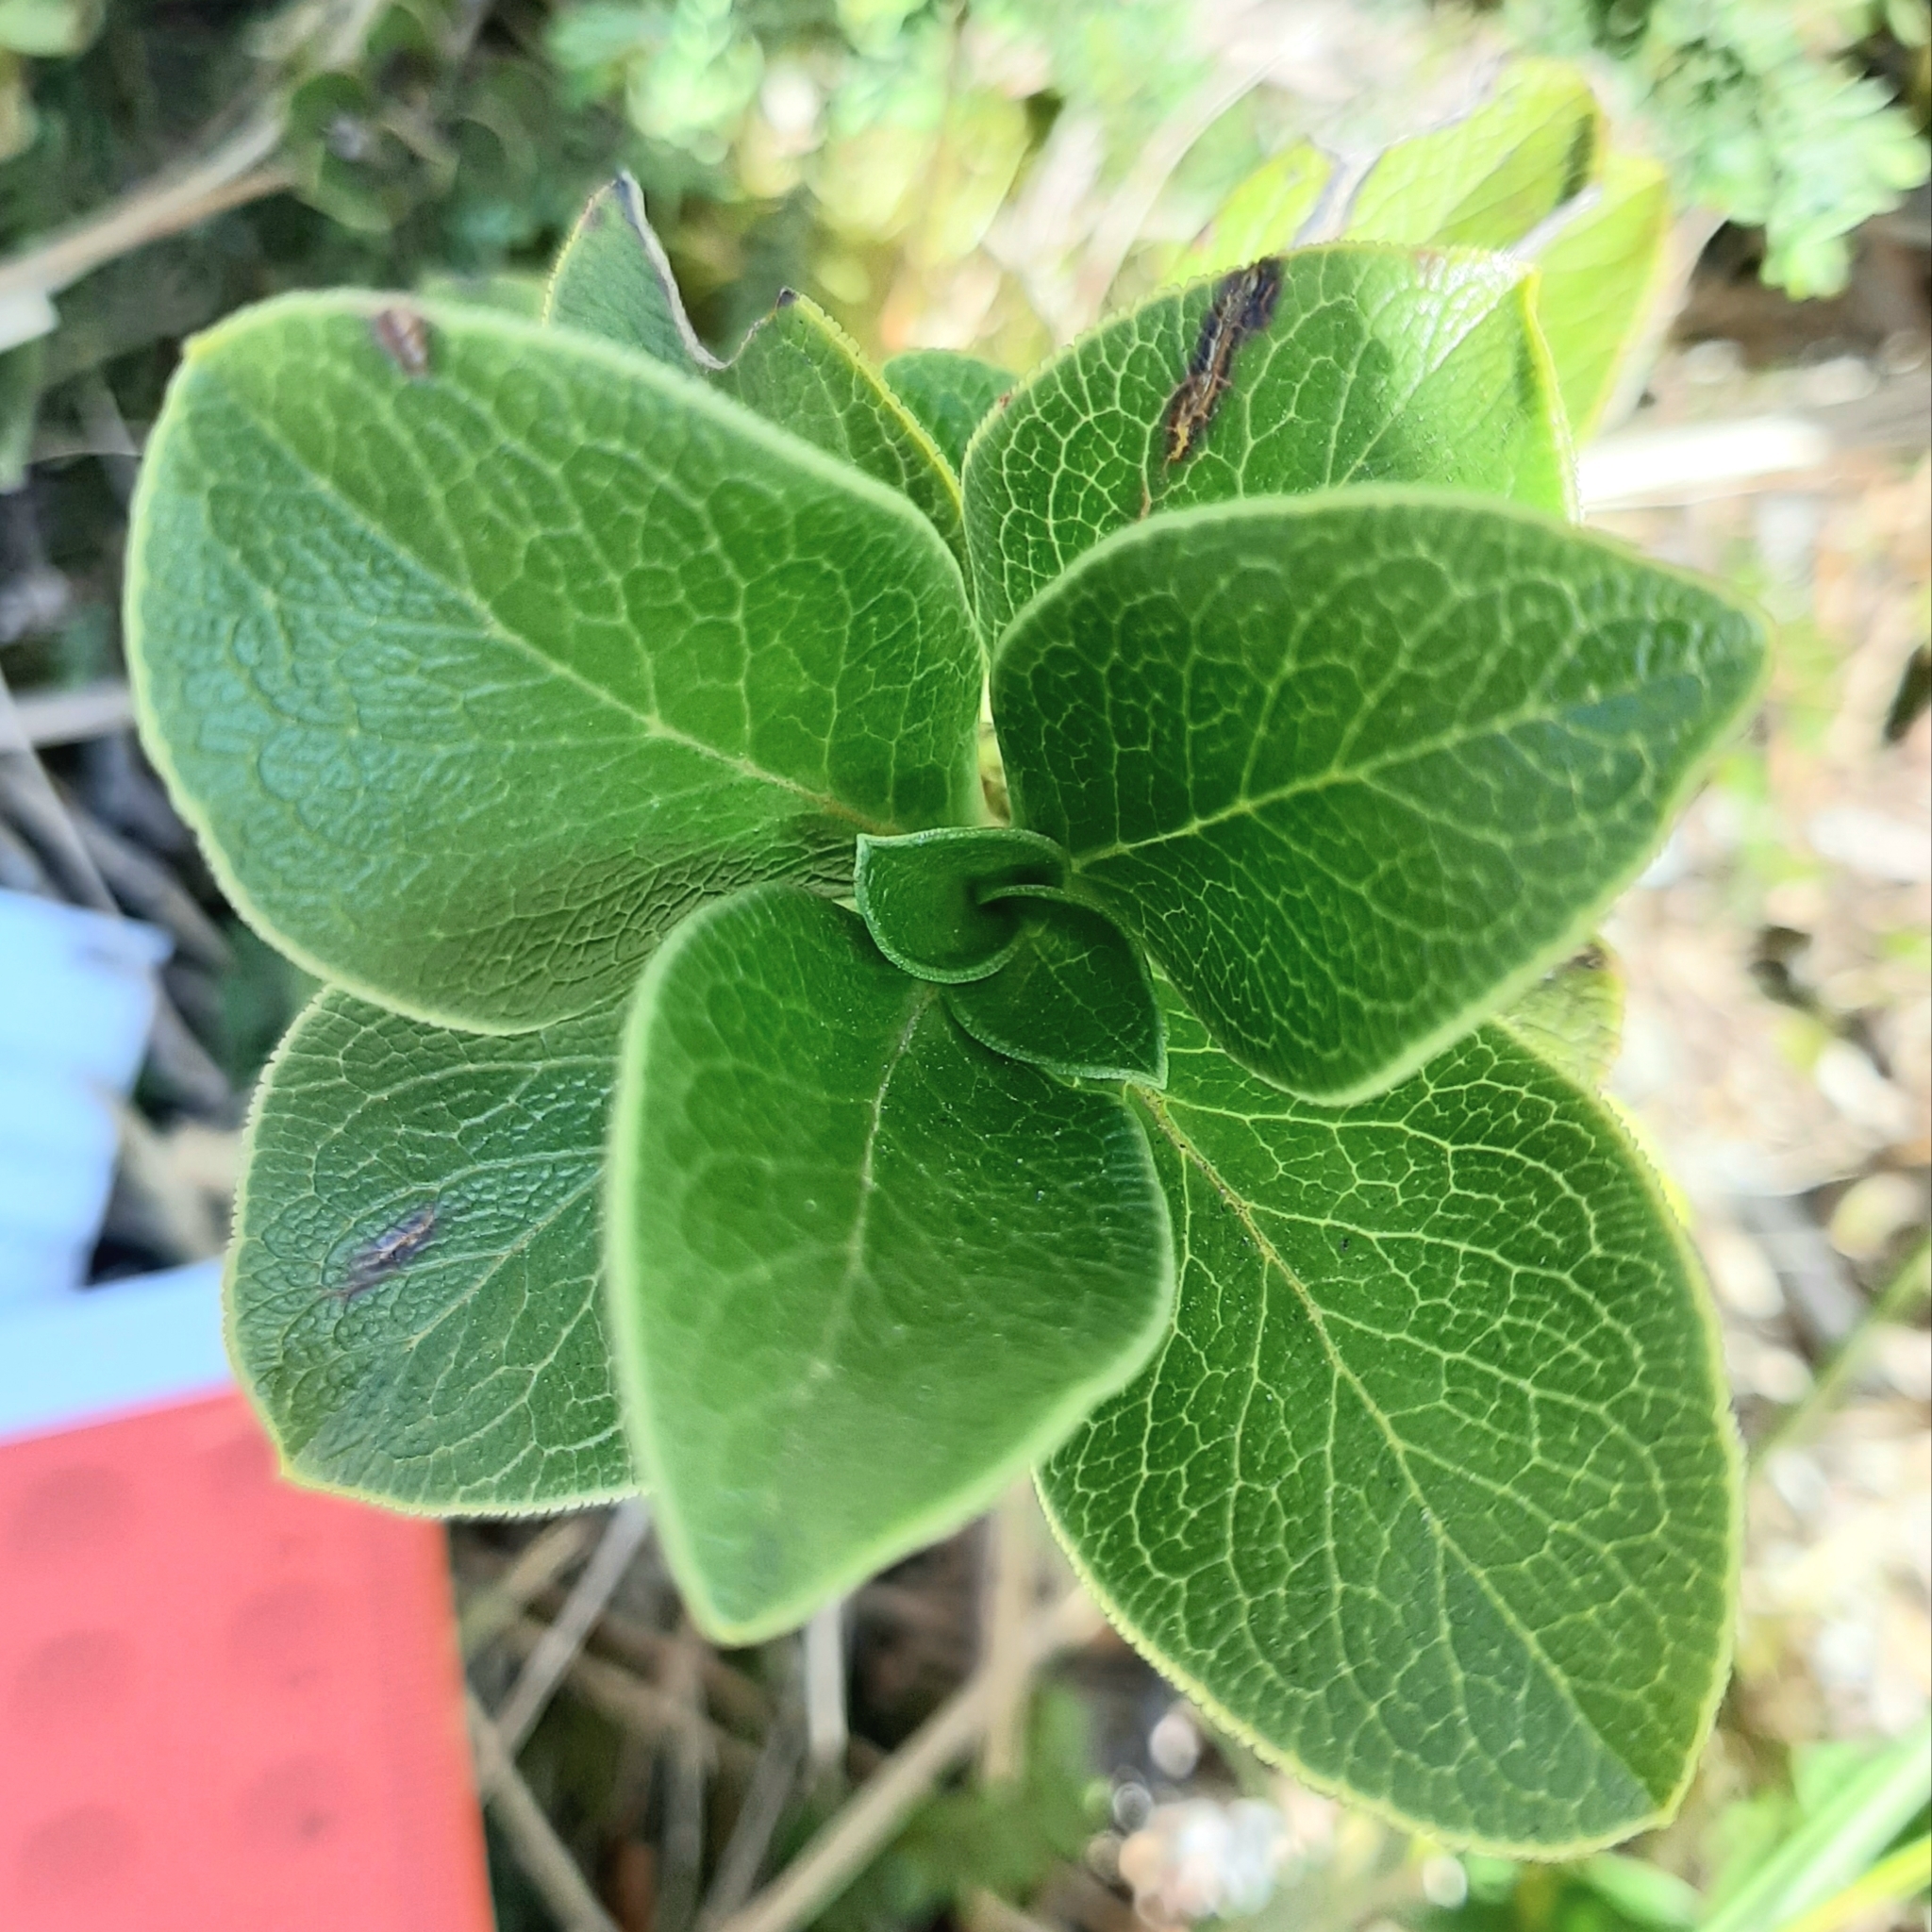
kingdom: Plantae
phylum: Tracheophyta
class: Magnoliopsida
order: Gentianales
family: Rubiaceae
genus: Coprosma
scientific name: Coprosma serrulata
